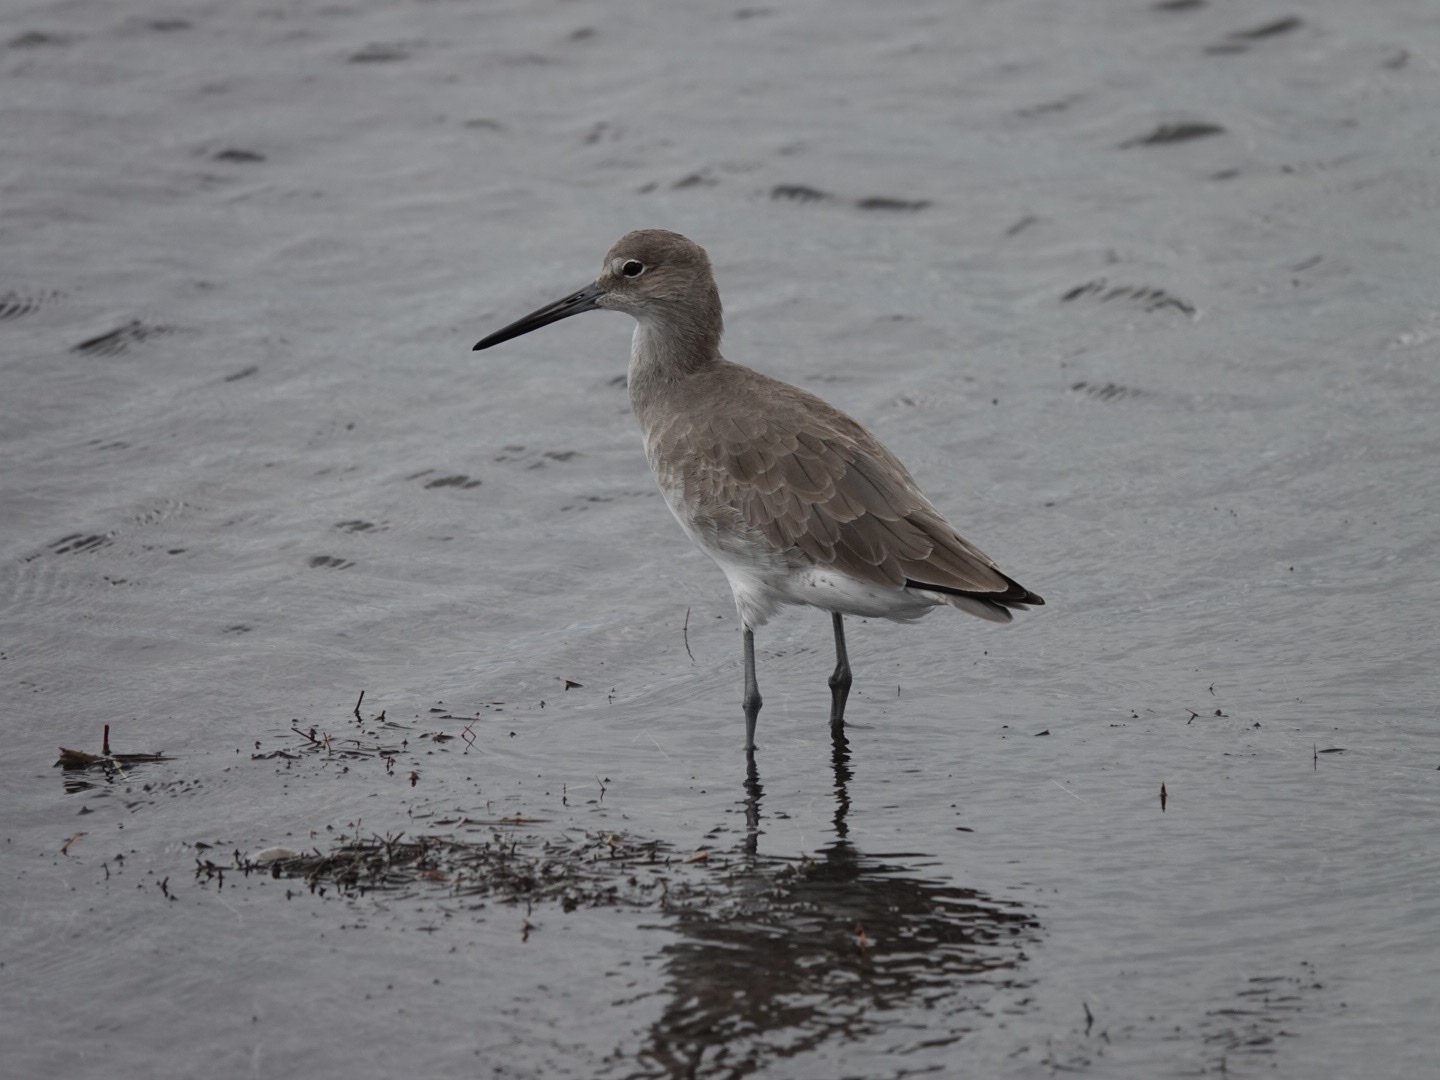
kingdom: Animalia
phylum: Chordata
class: Aves
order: Charadriiformes
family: Scolopacidae
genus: Tringa
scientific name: Tringa semipalmata
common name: Willet
